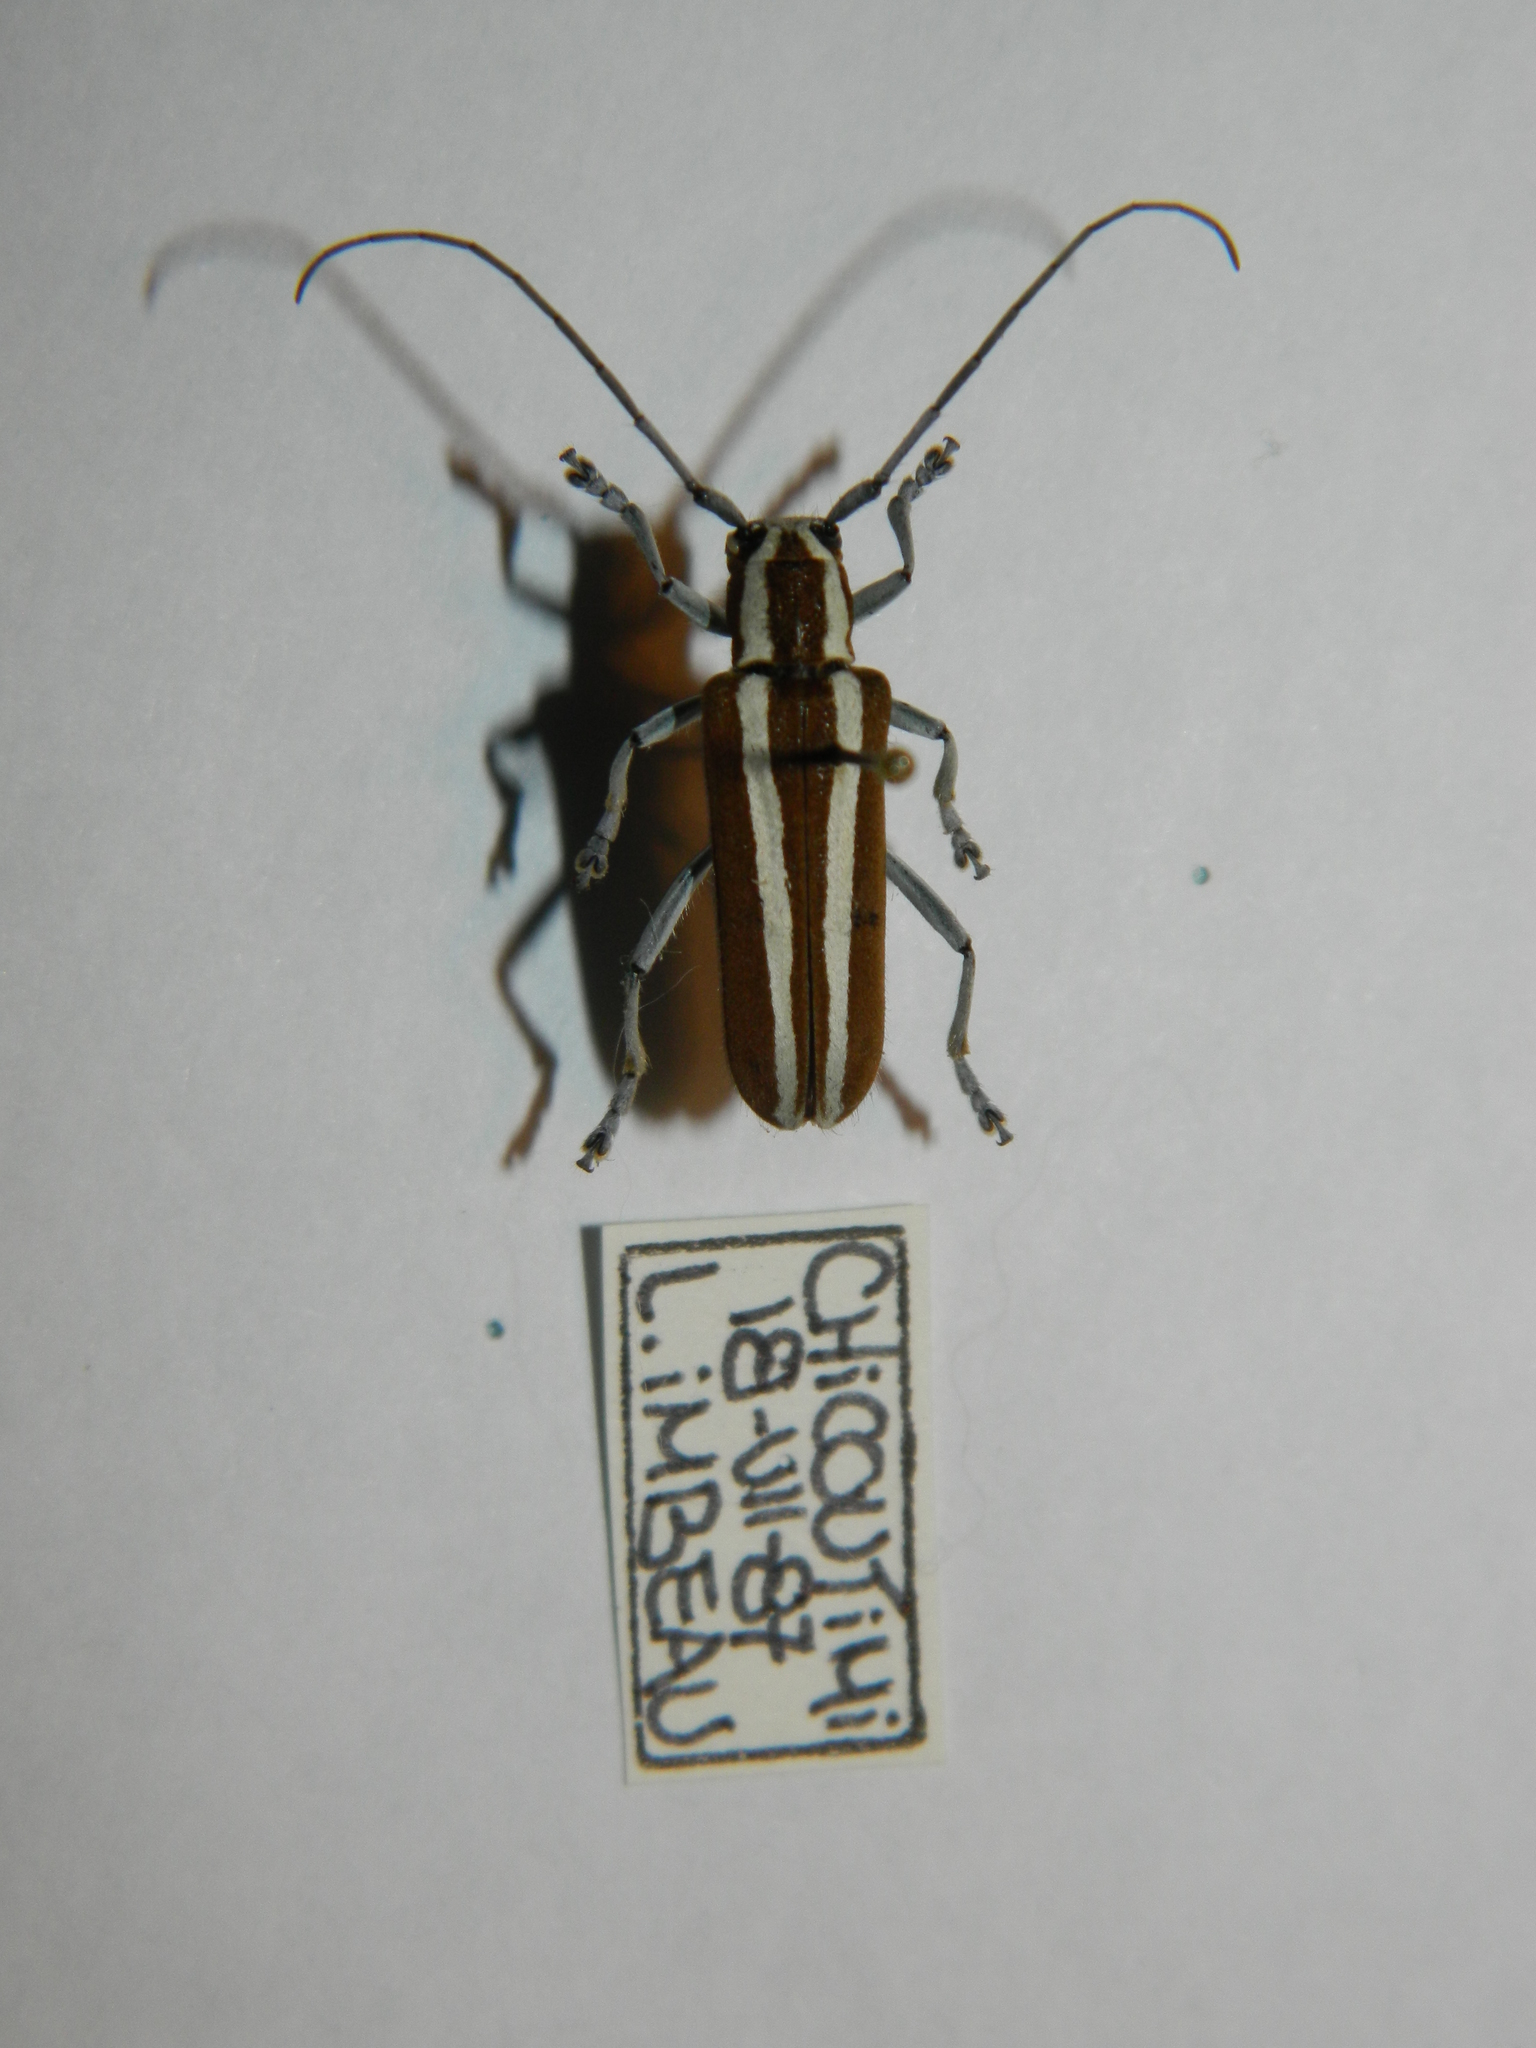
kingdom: Animalia
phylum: Arthropoda
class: Insecta
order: Coleoptera
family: Cerambycidae
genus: Saperda
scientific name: Saperda candida
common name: Round-headed borer
